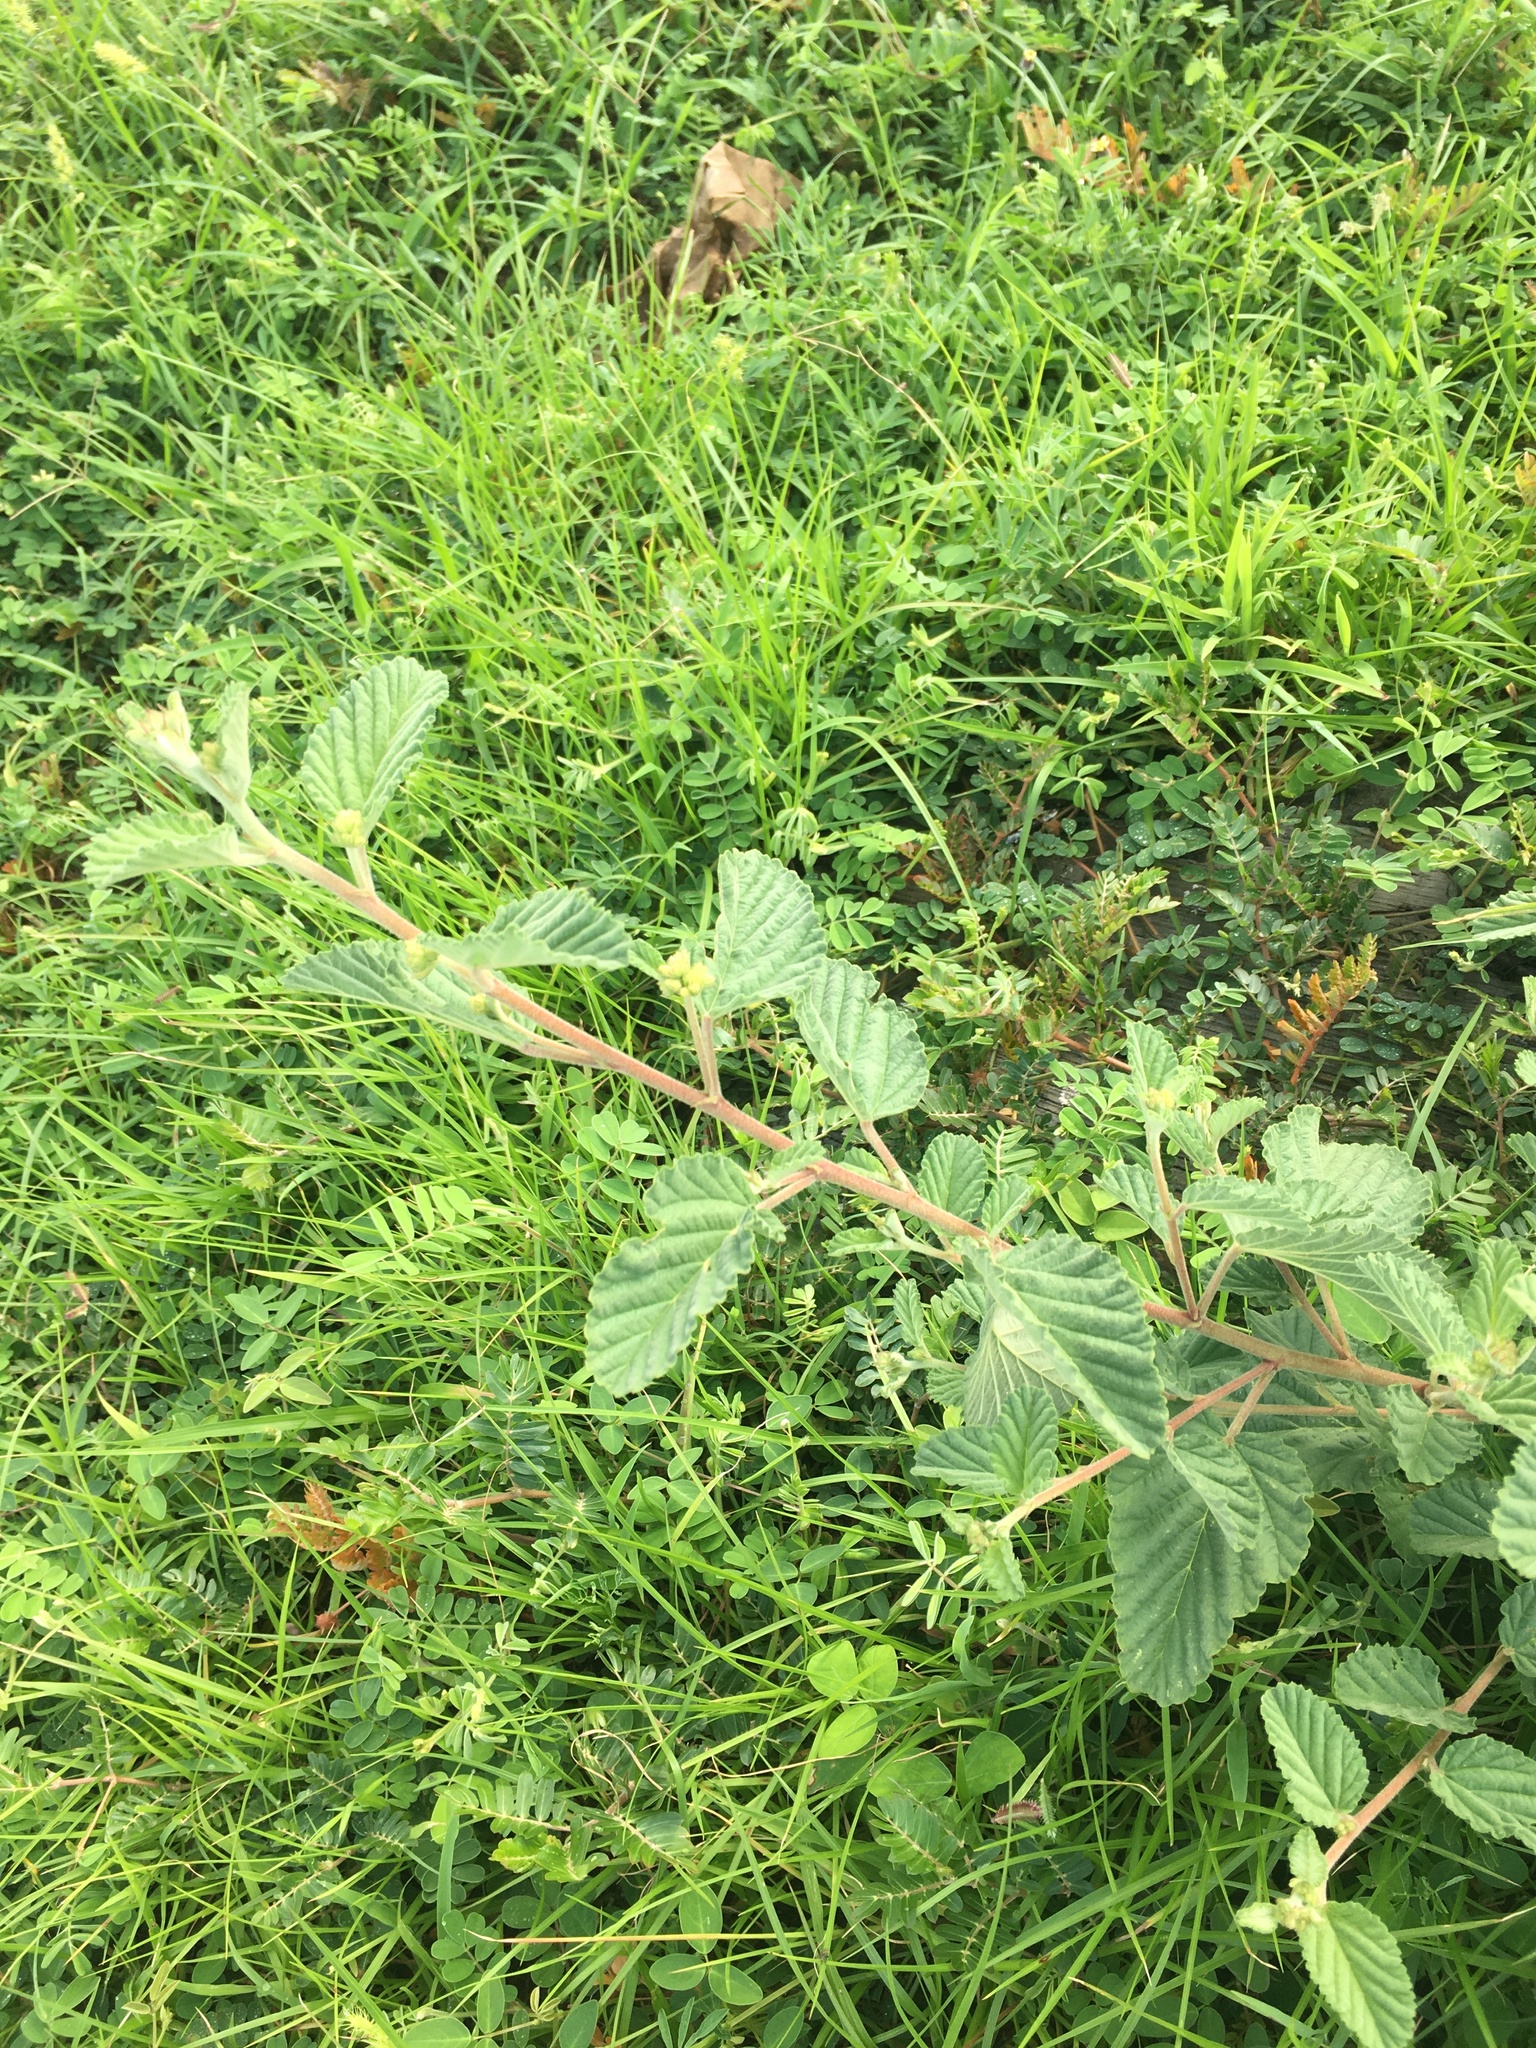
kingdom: Plantae
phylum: Tracheophyta
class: Magnoliopsida
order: Malvales
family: Malvaceae
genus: Waltheria
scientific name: Waltheria indica
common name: Leather-coat
